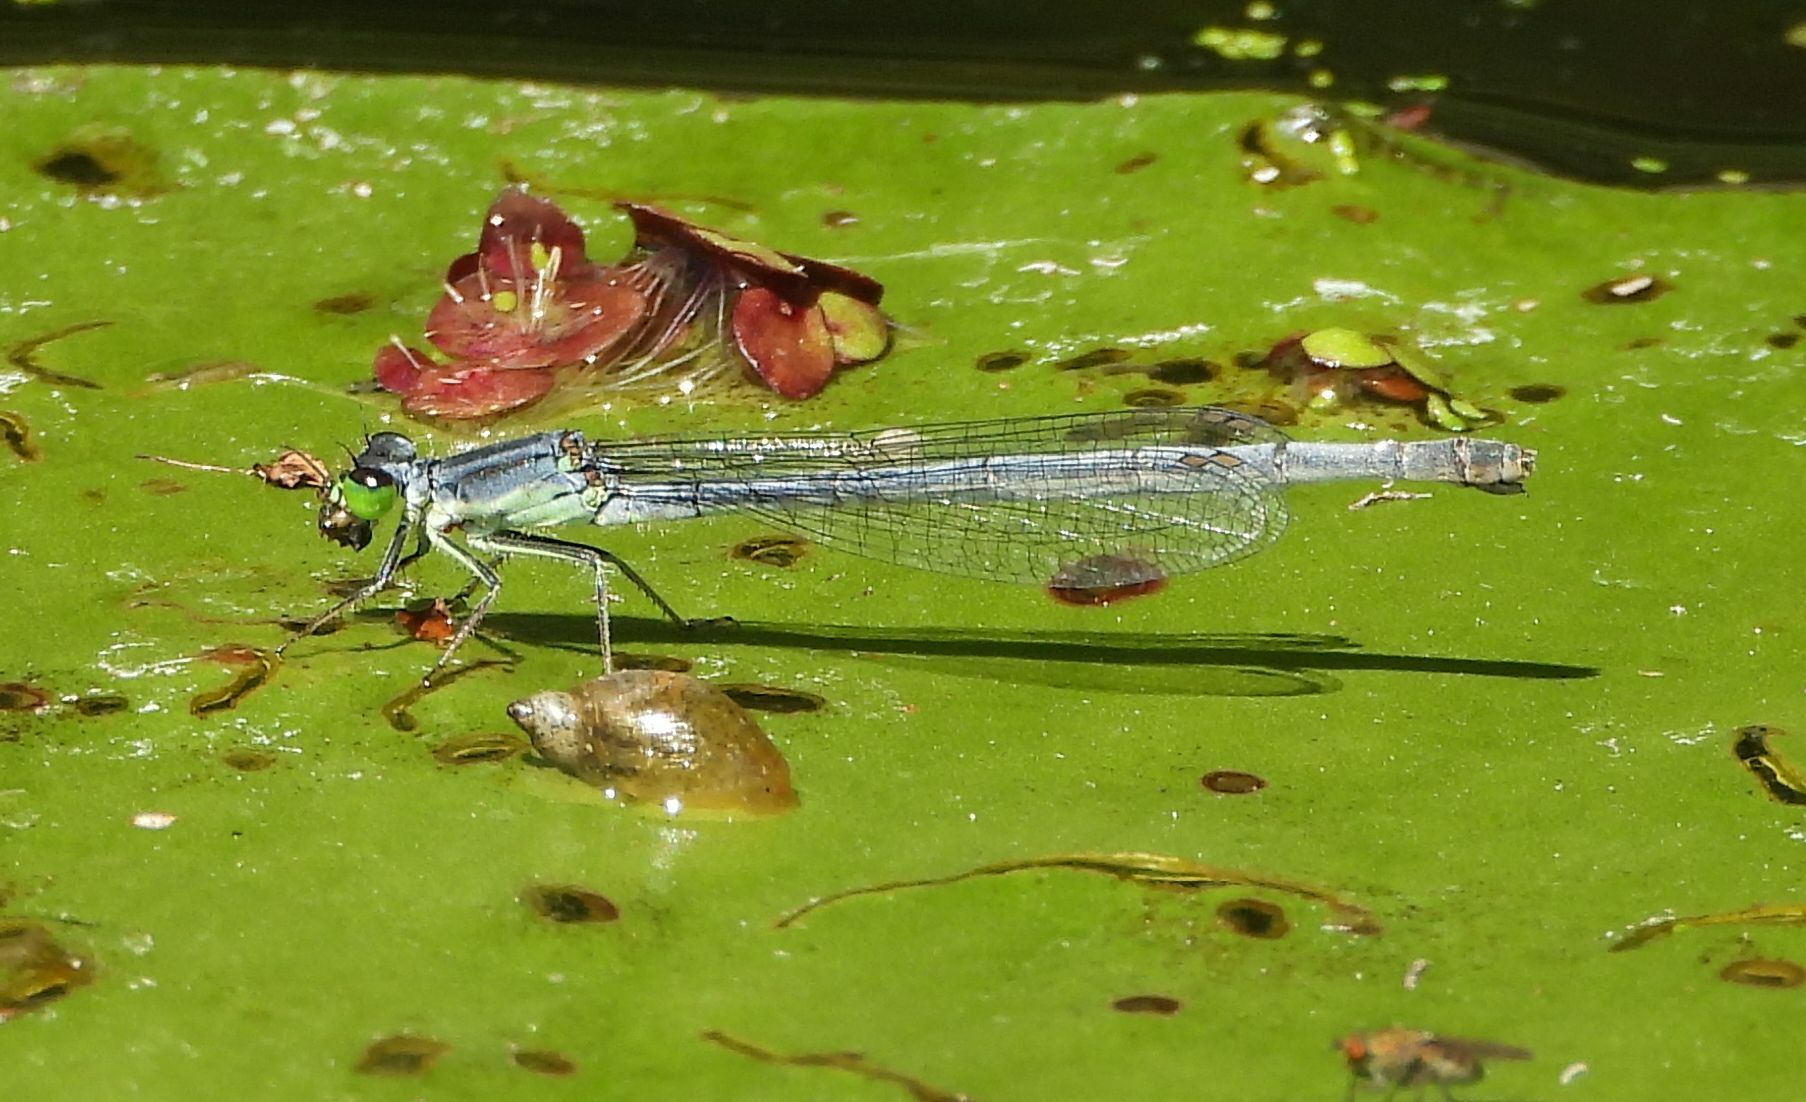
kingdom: Animalia
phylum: Arthropoda
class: Insecta
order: Odonata
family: Coenagrionidae
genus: Ischnura
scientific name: Ischnura verticalis
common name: Eastern forktail
